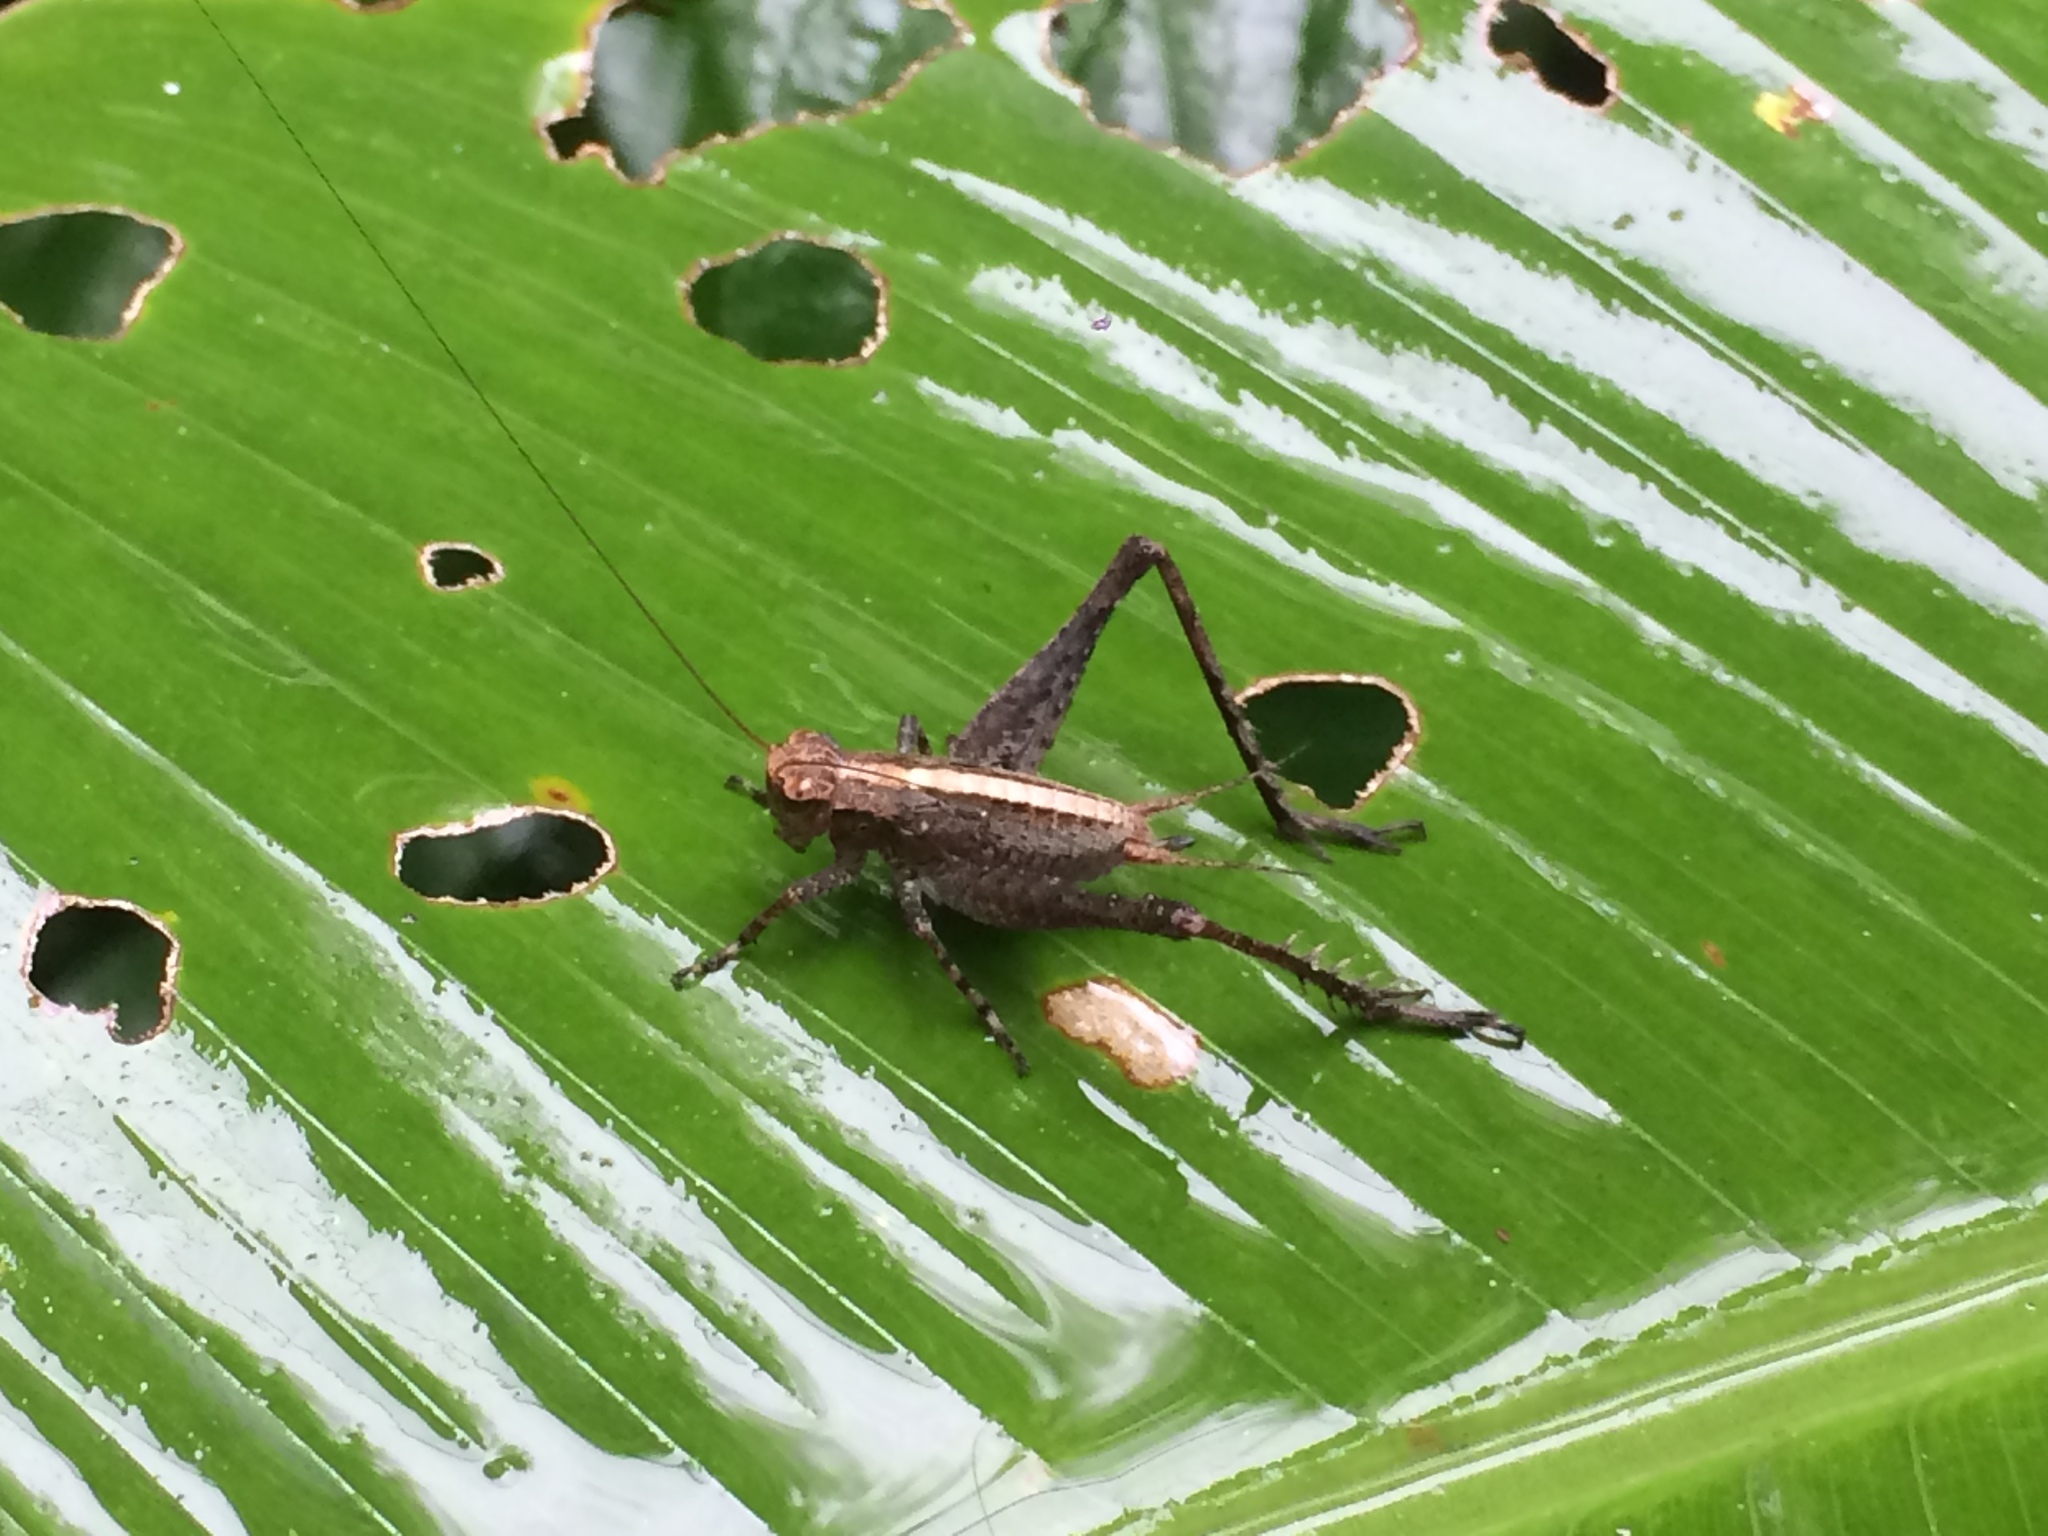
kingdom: Animalia
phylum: Arthropoda
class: Insecta
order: Orthoptera
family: Gryllidae
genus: Eneoptera
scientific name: Eneoptera surinamensis
